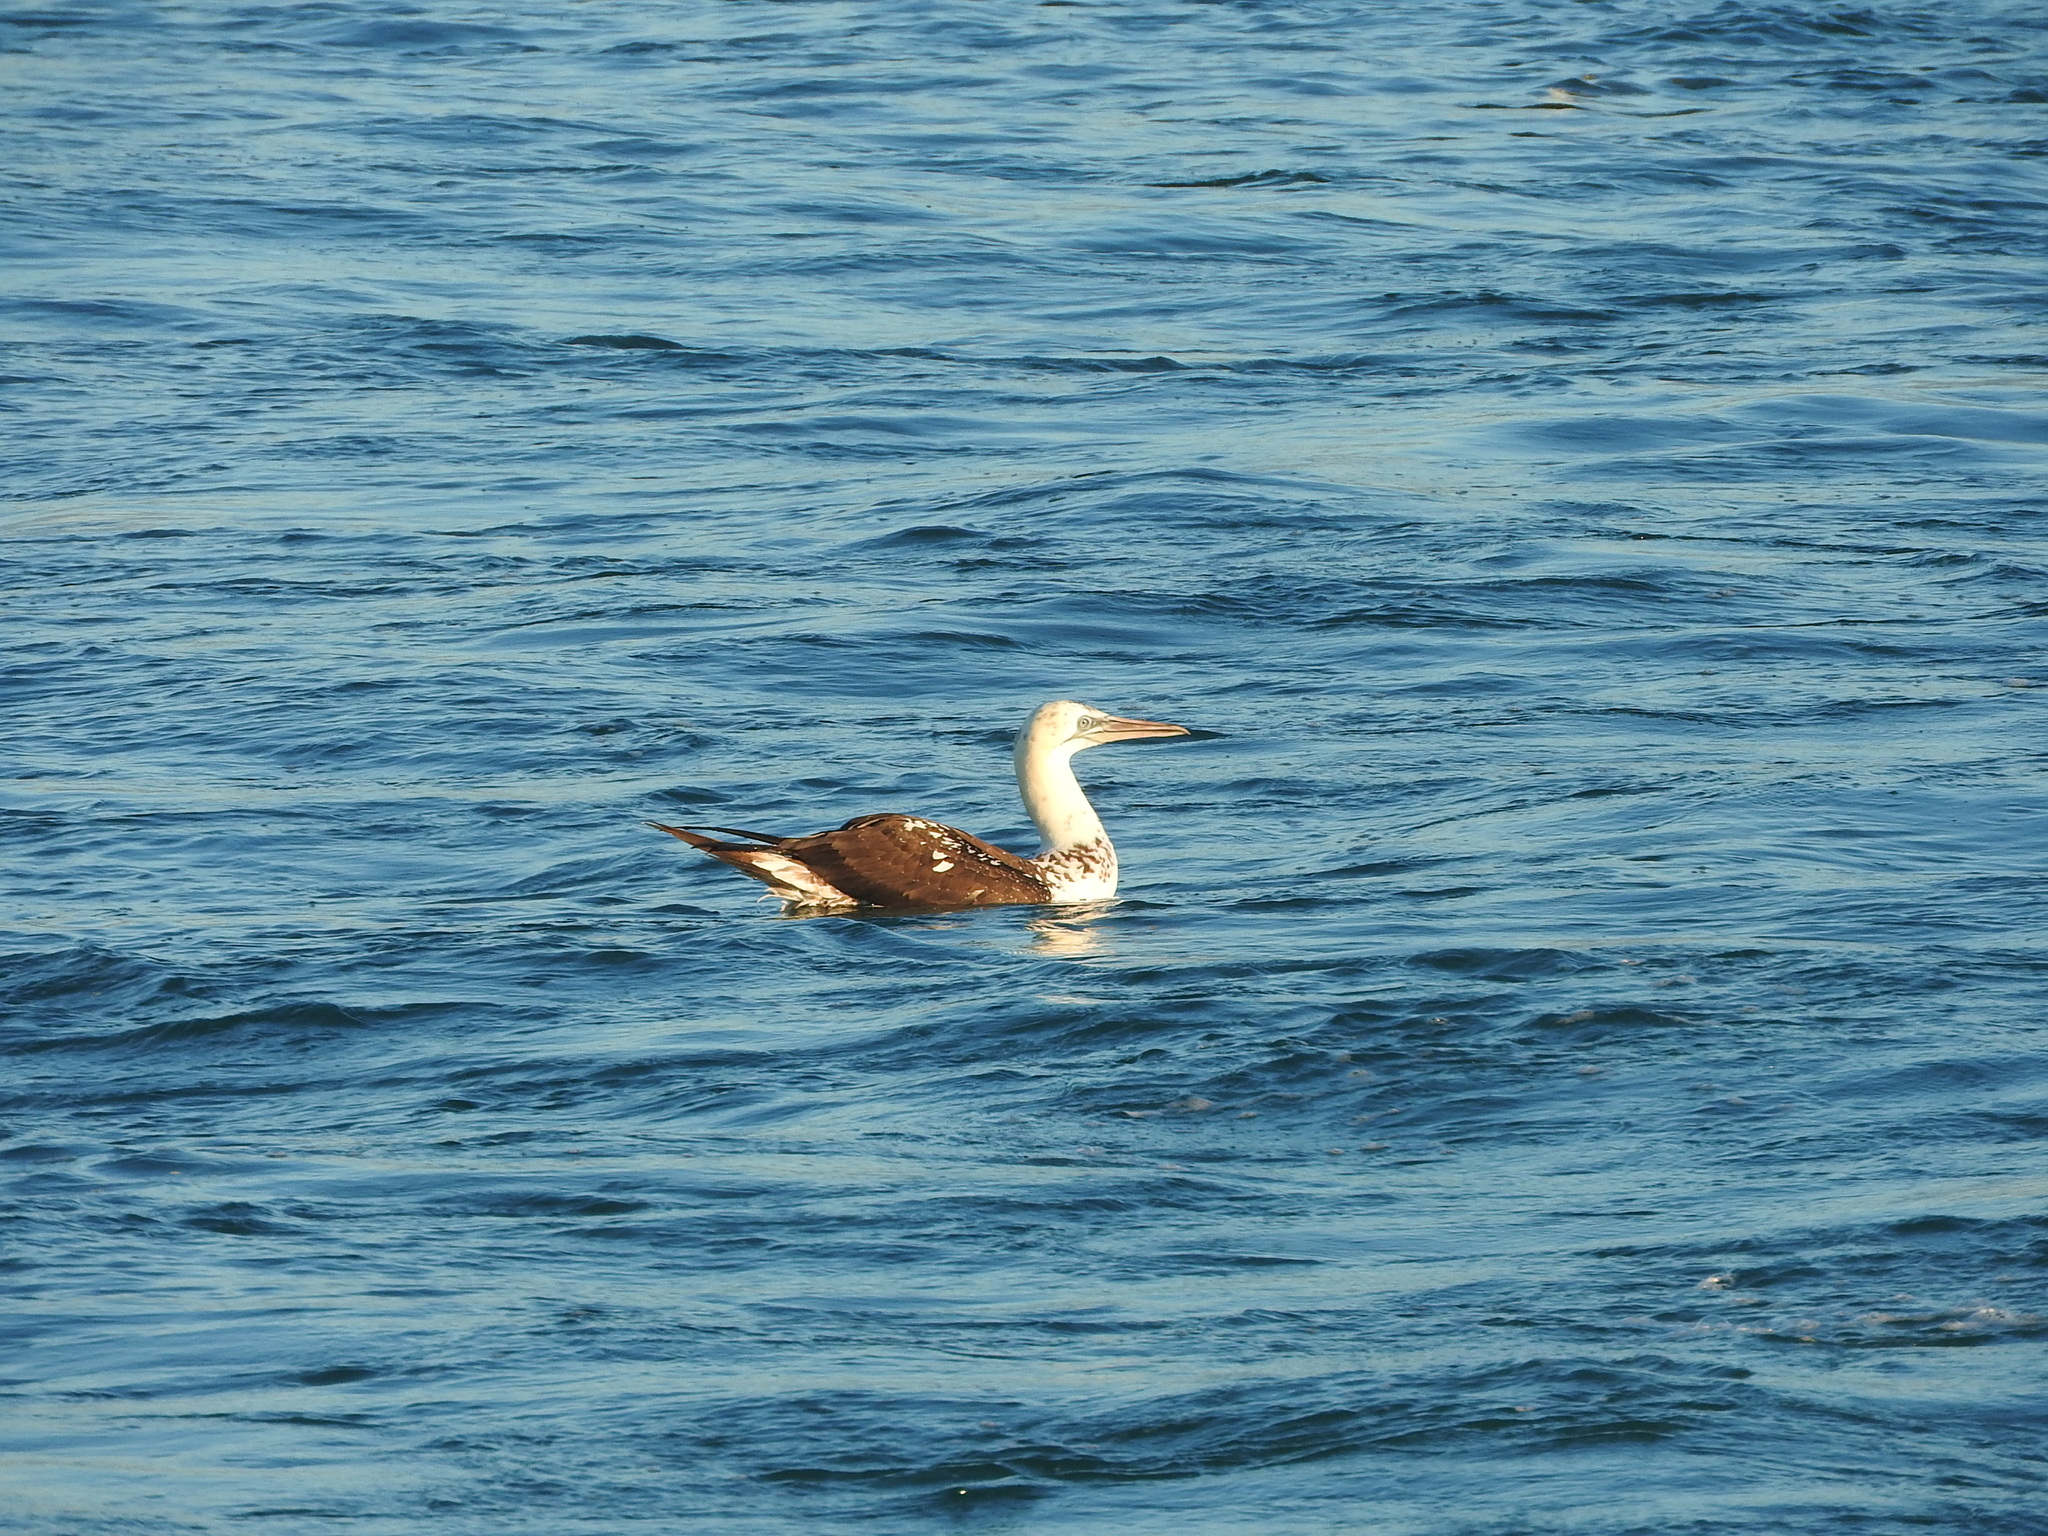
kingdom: Animalia
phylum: Chordata
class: Aves
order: Suliformes
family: Sulidae
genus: Morus
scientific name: Morus bassanus
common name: Northern gannet
